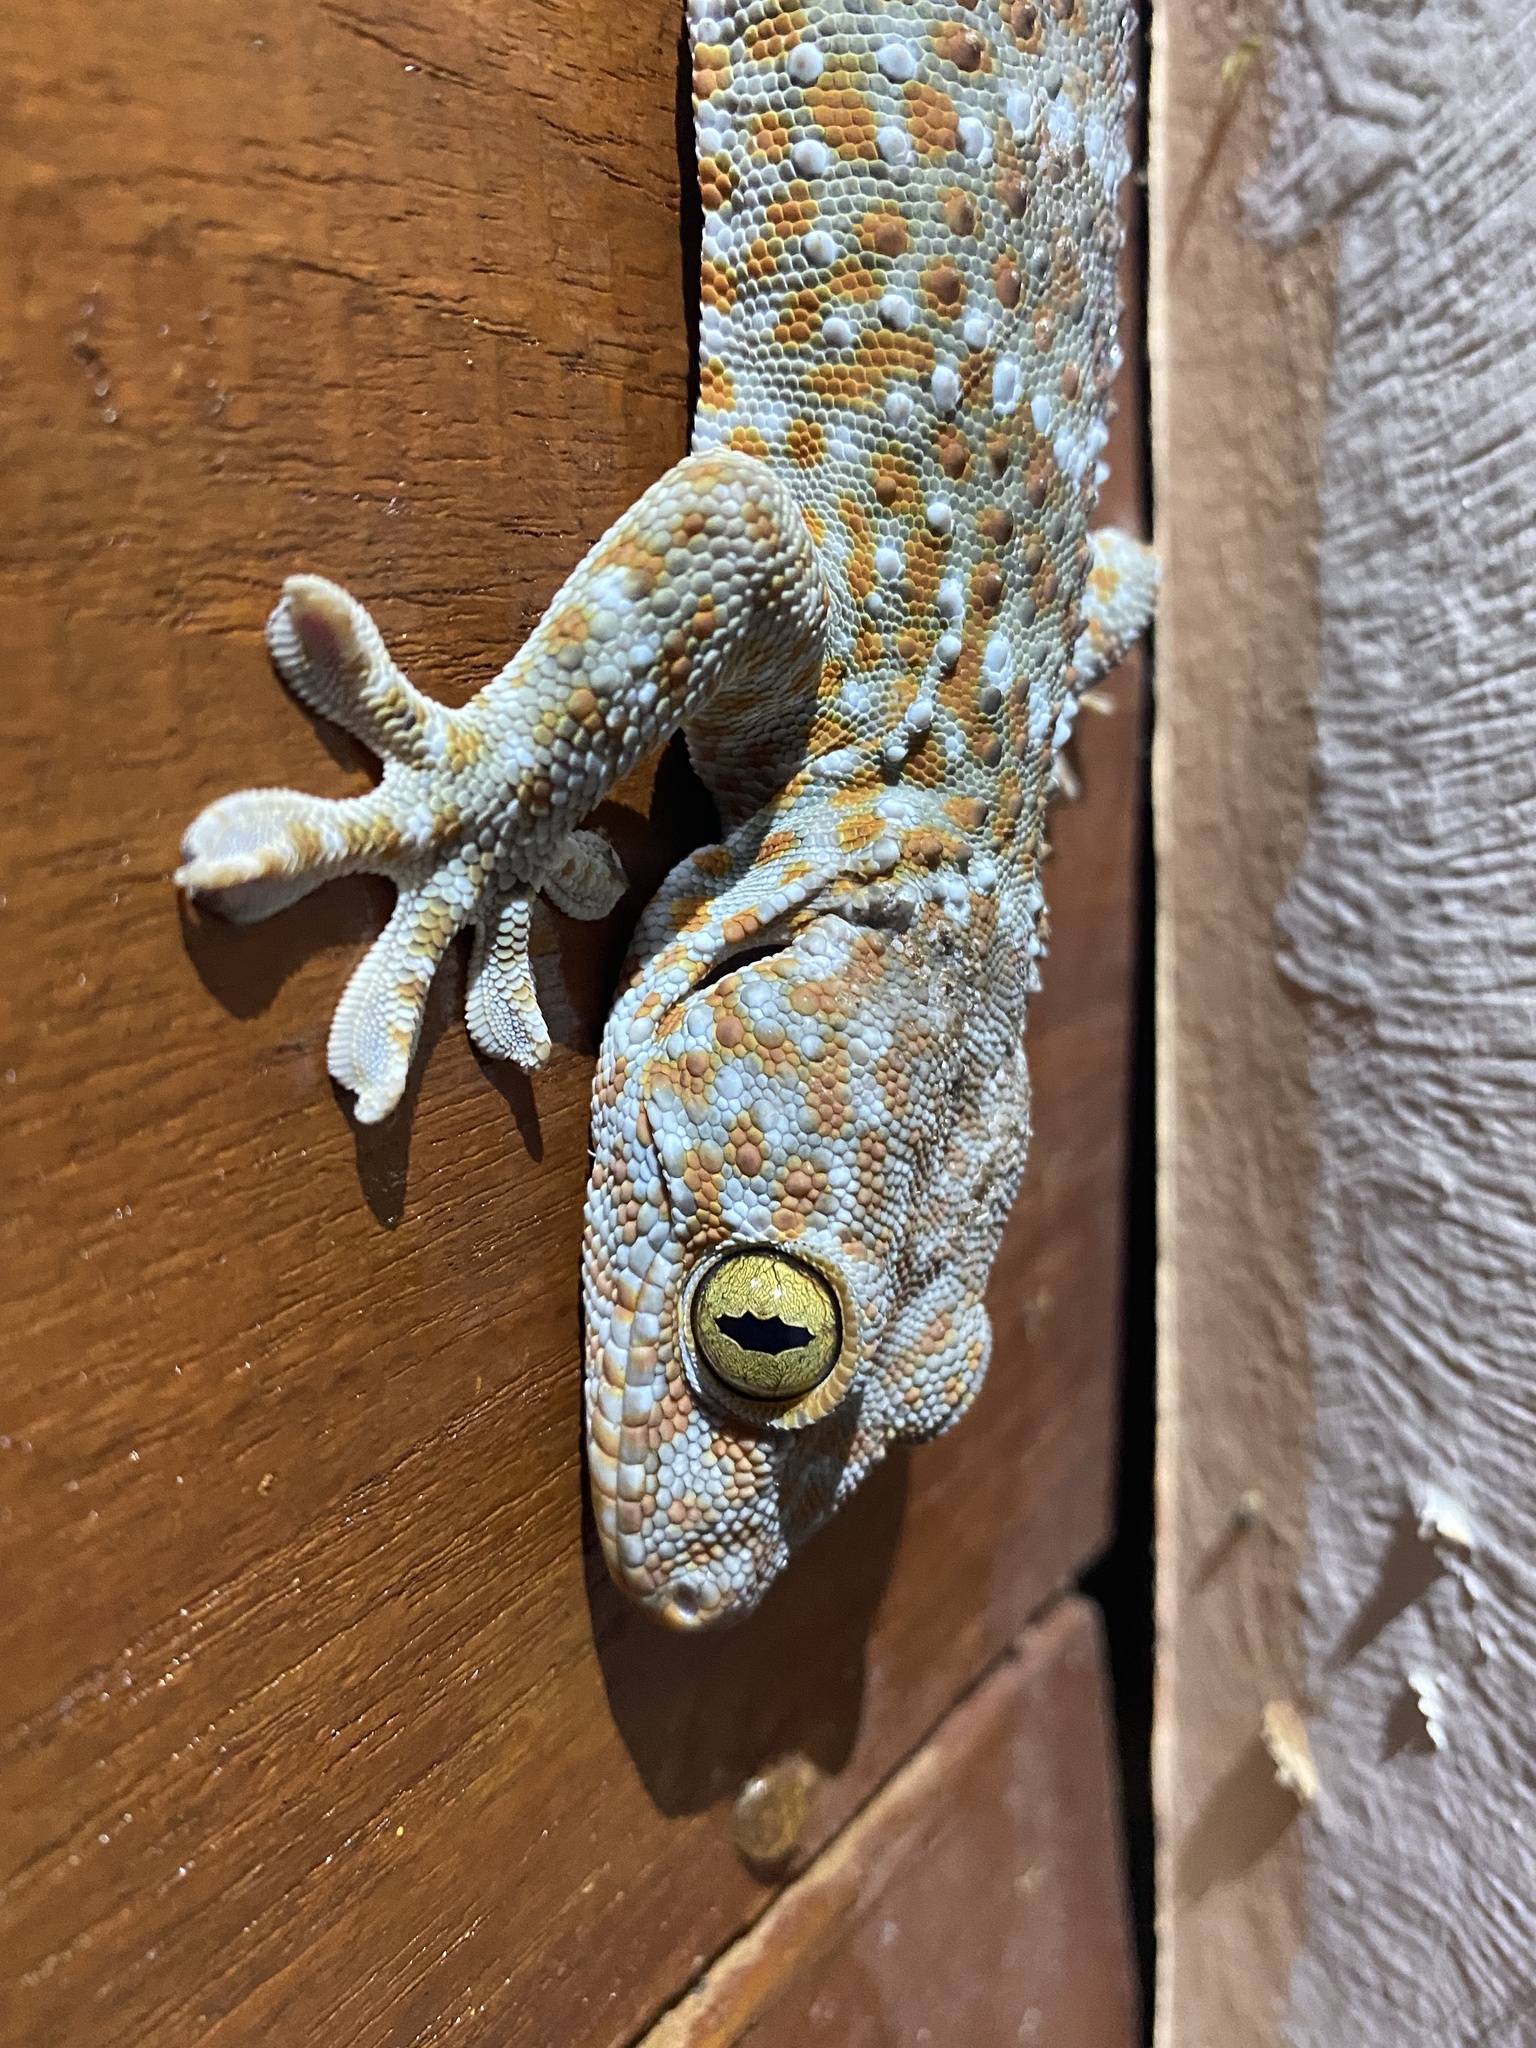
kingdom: Animalia
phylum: Chordata
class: Squamata
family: Gekkonidae
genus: Gekko
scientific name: Gekko gecko
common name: Tokay gecko
